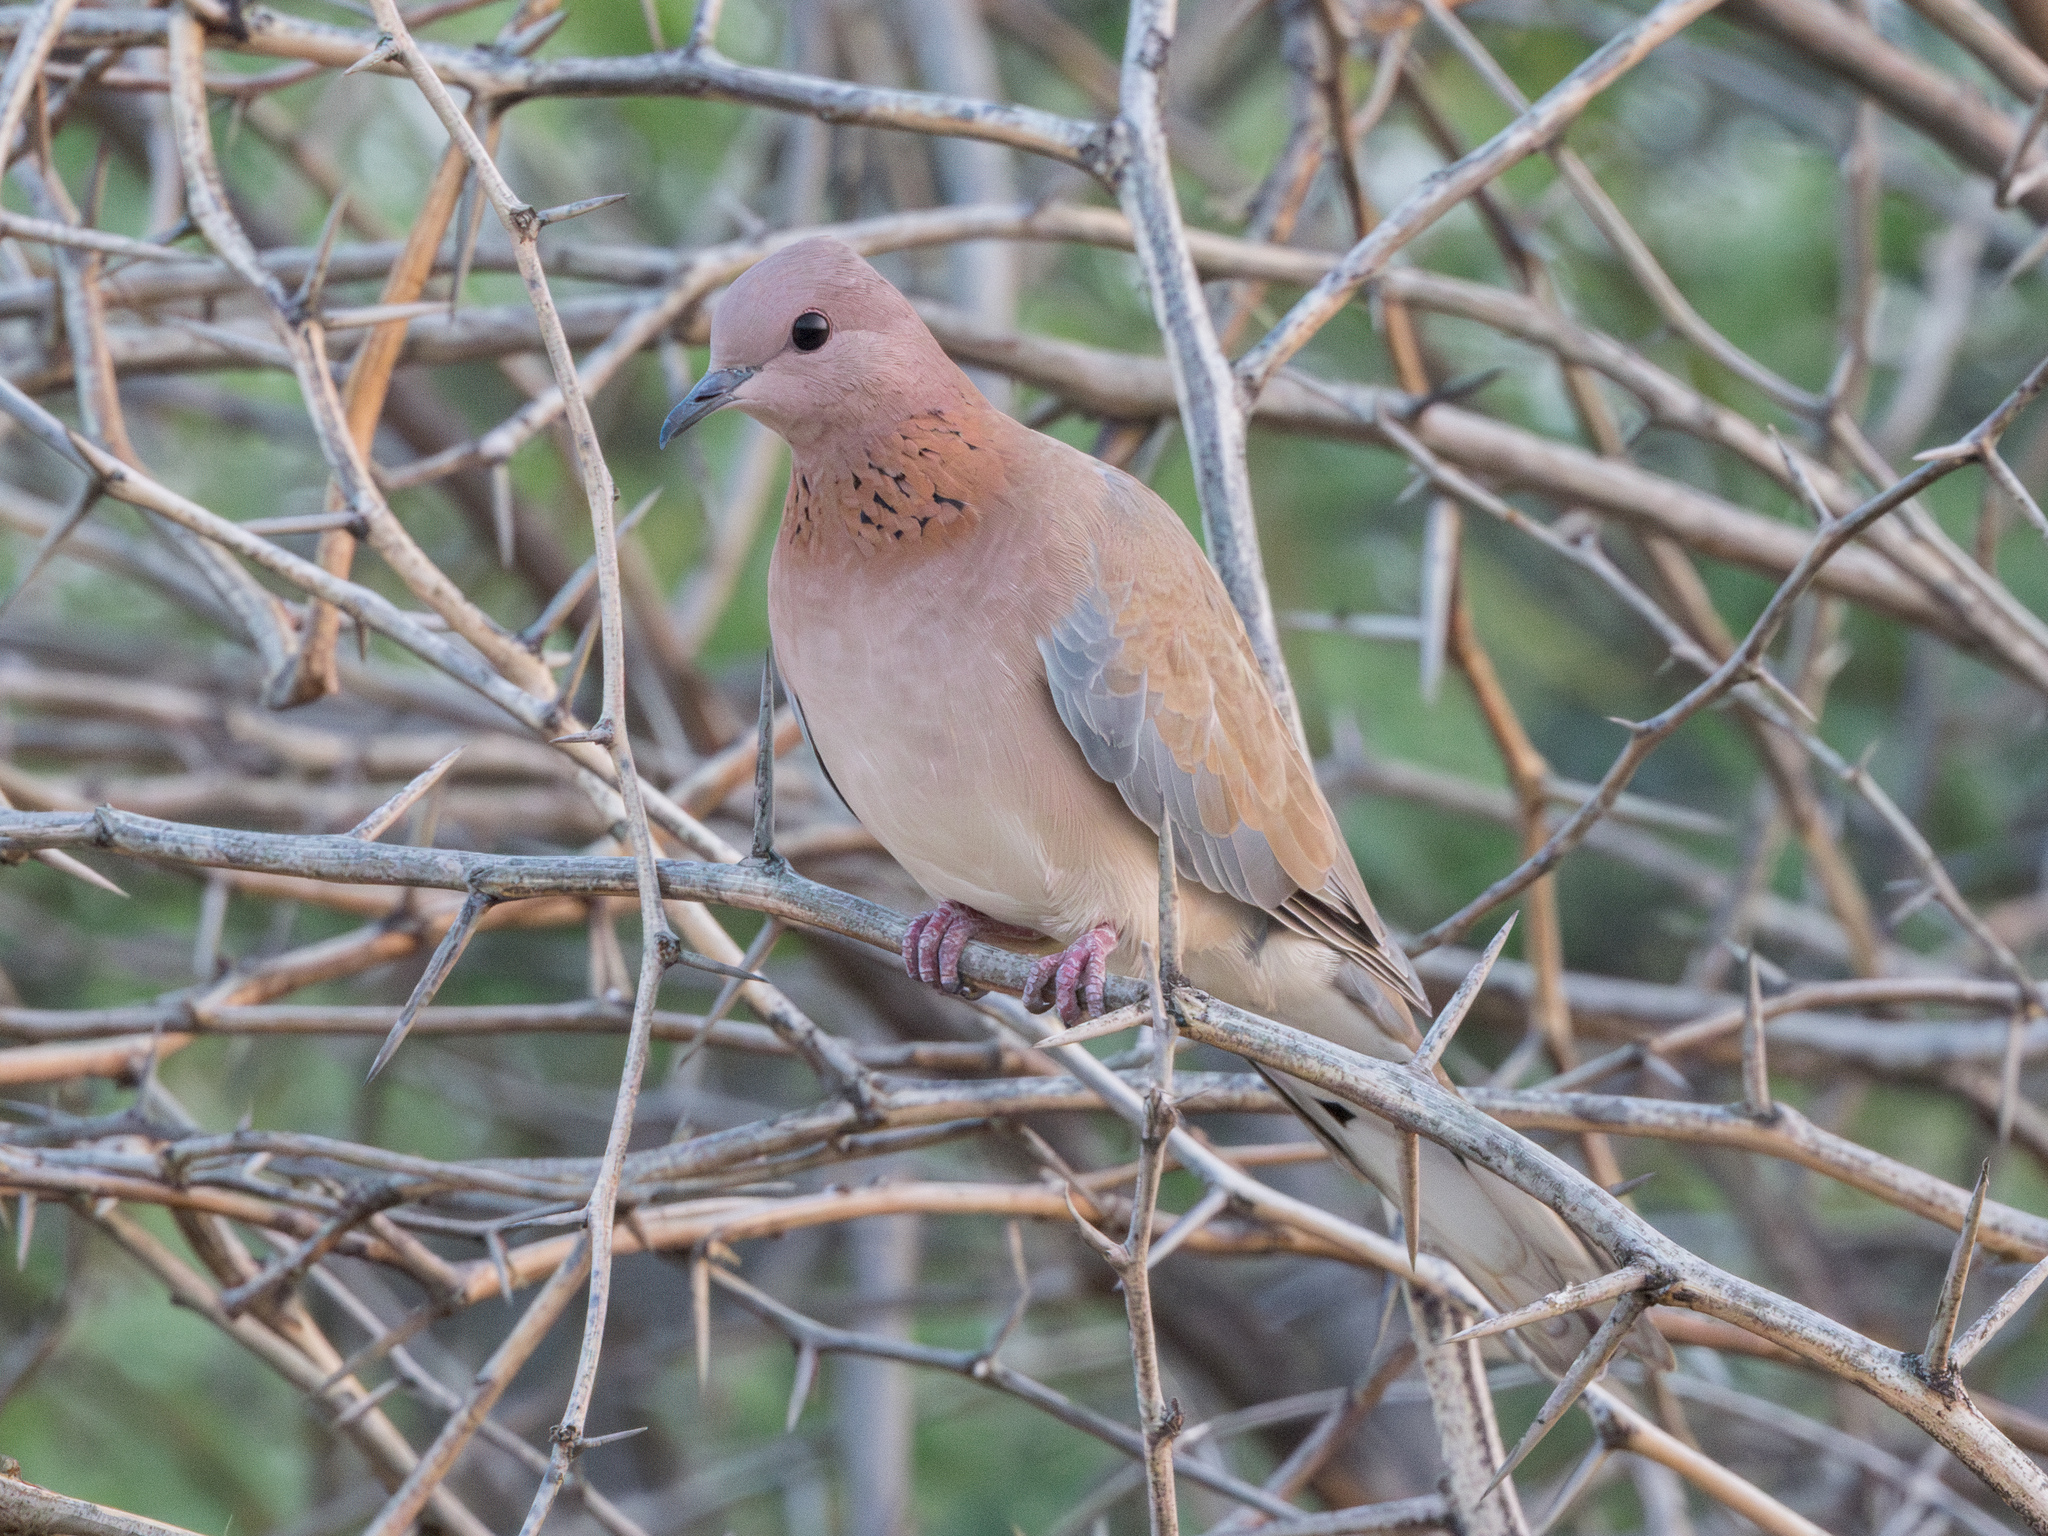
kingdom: Animalia
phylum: Chordata
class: Aves
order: Columbiformes
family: Columbidae
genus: Spilopelia
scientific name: Spilopelia senegalensis
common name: Laughing dove
